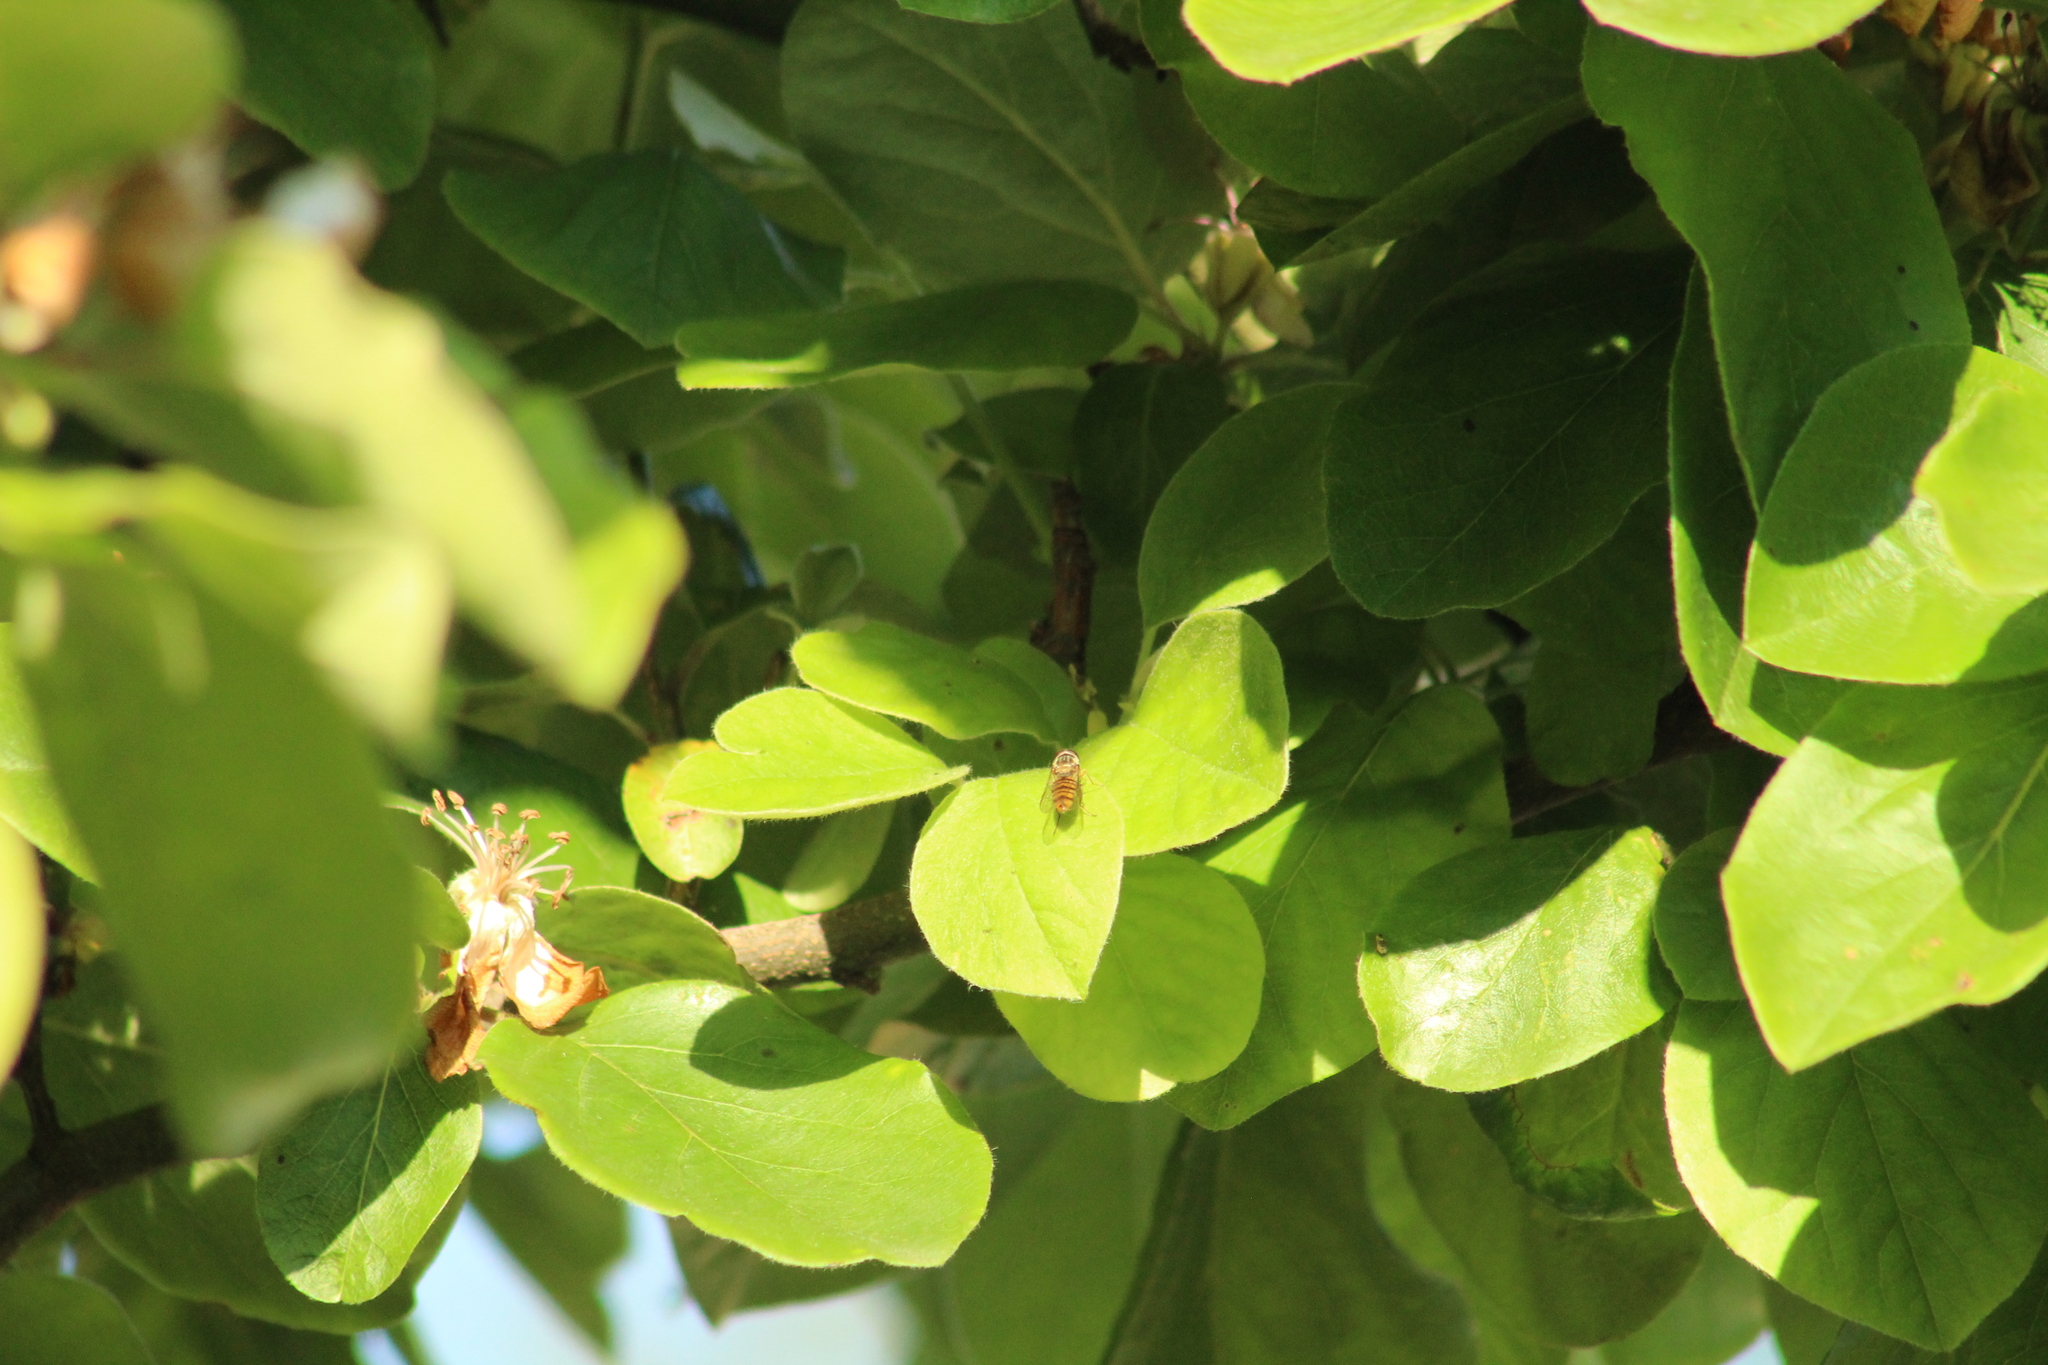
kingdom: Animalia
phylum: Arthropoda
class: Insecta
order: Diptera
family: Syrphidae
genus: Episyrphus
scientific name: Episyrphus balteatus
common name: Marmalade hoverfly
